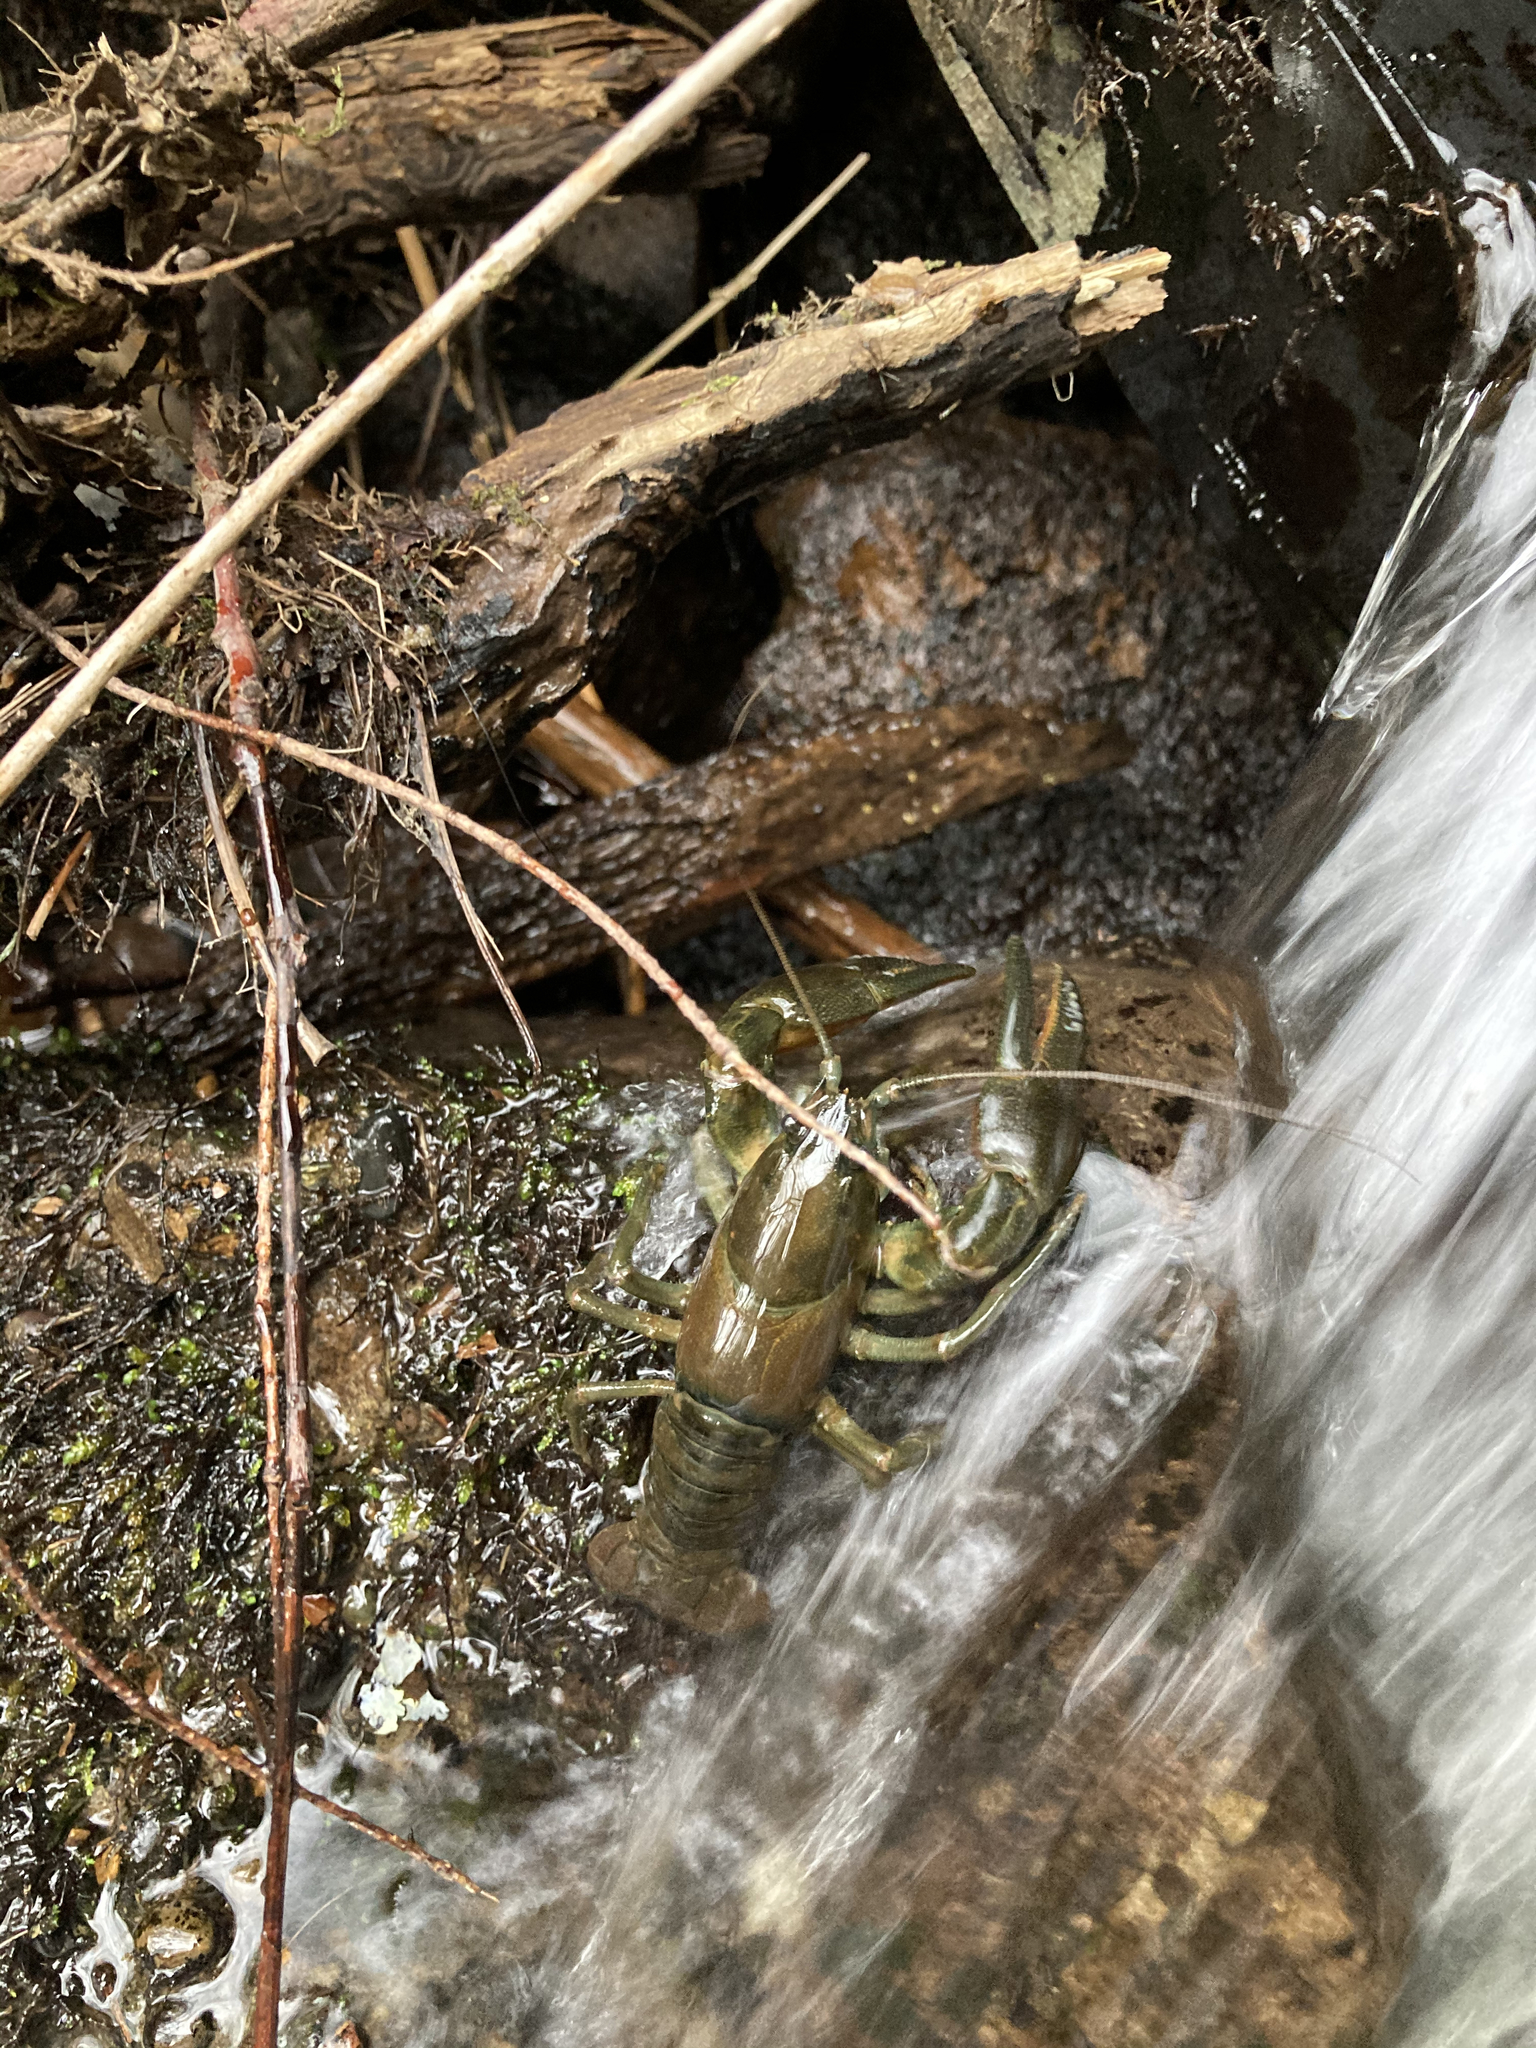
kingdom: Animalia
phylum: Arthropoda
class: Malacostraca
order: Decapoda
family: Astacidae
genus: Pacifastacus
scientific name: Pacifastacus leniusculus
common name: Signal crayfish
